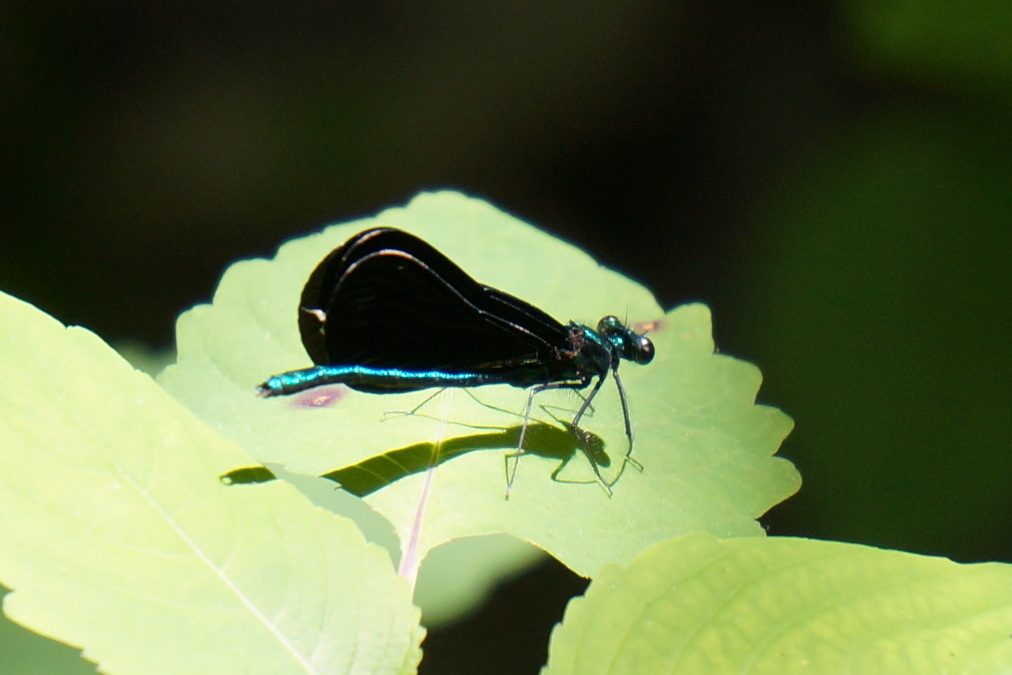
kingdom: Animalia
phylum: Arthropoda
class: Insecta
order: Odonata
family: Calopterygidae
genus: Calopteryx
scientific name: Calopteryx maculata
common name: Ebony jewelwing
